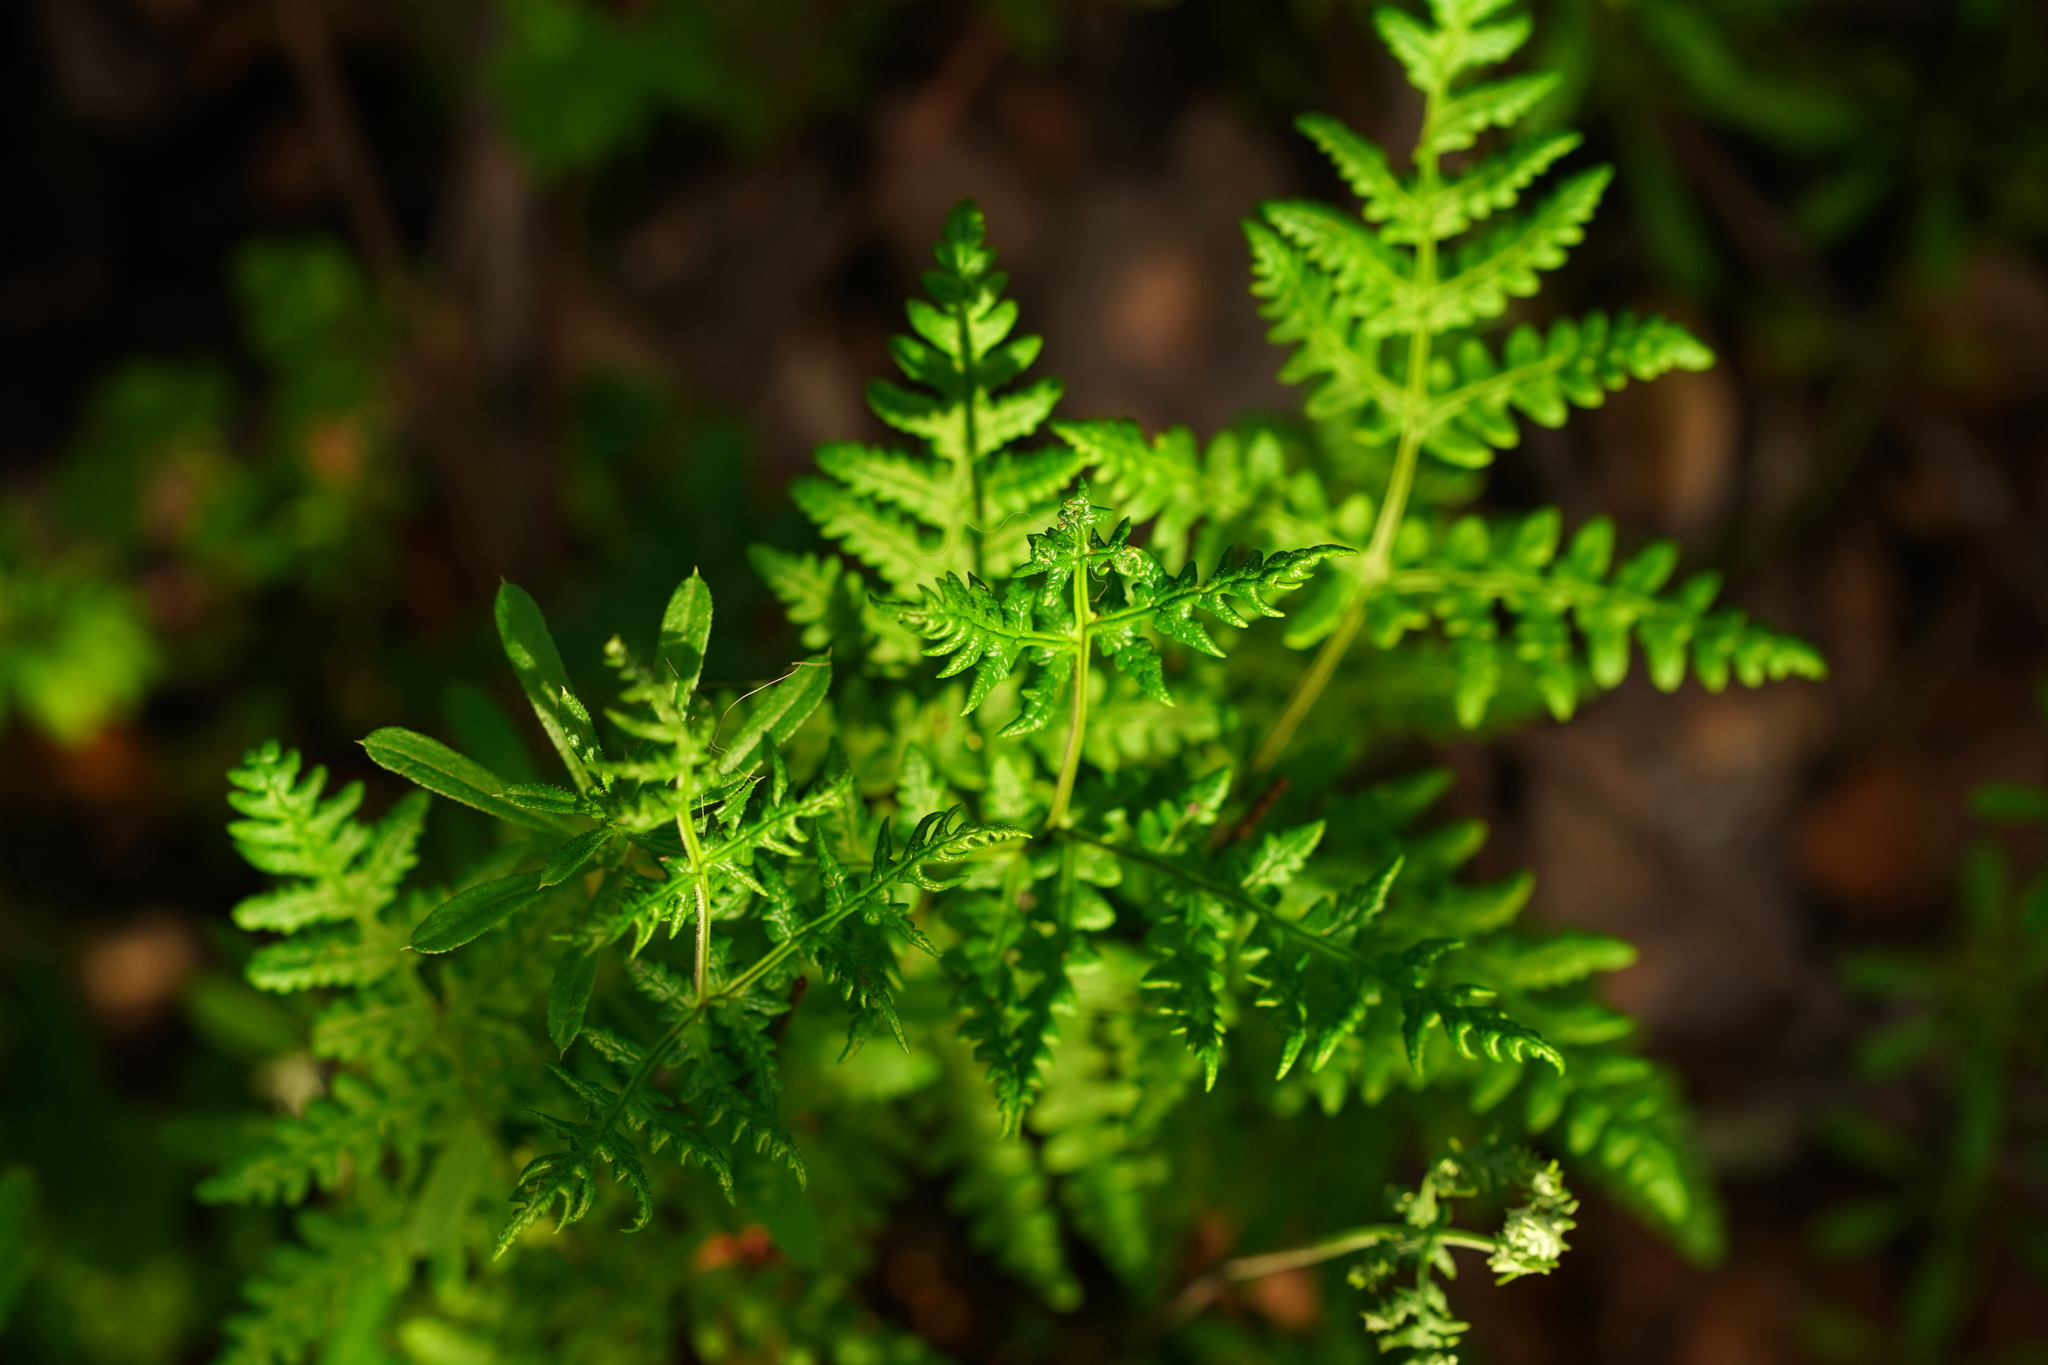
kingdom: Plantae
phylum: Tracheophyta
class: Polypodiopsida
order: Polypodiales
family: Pteridaceae
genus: Pentagramma
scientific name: Pentagramma triangularis
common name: Gold fern
